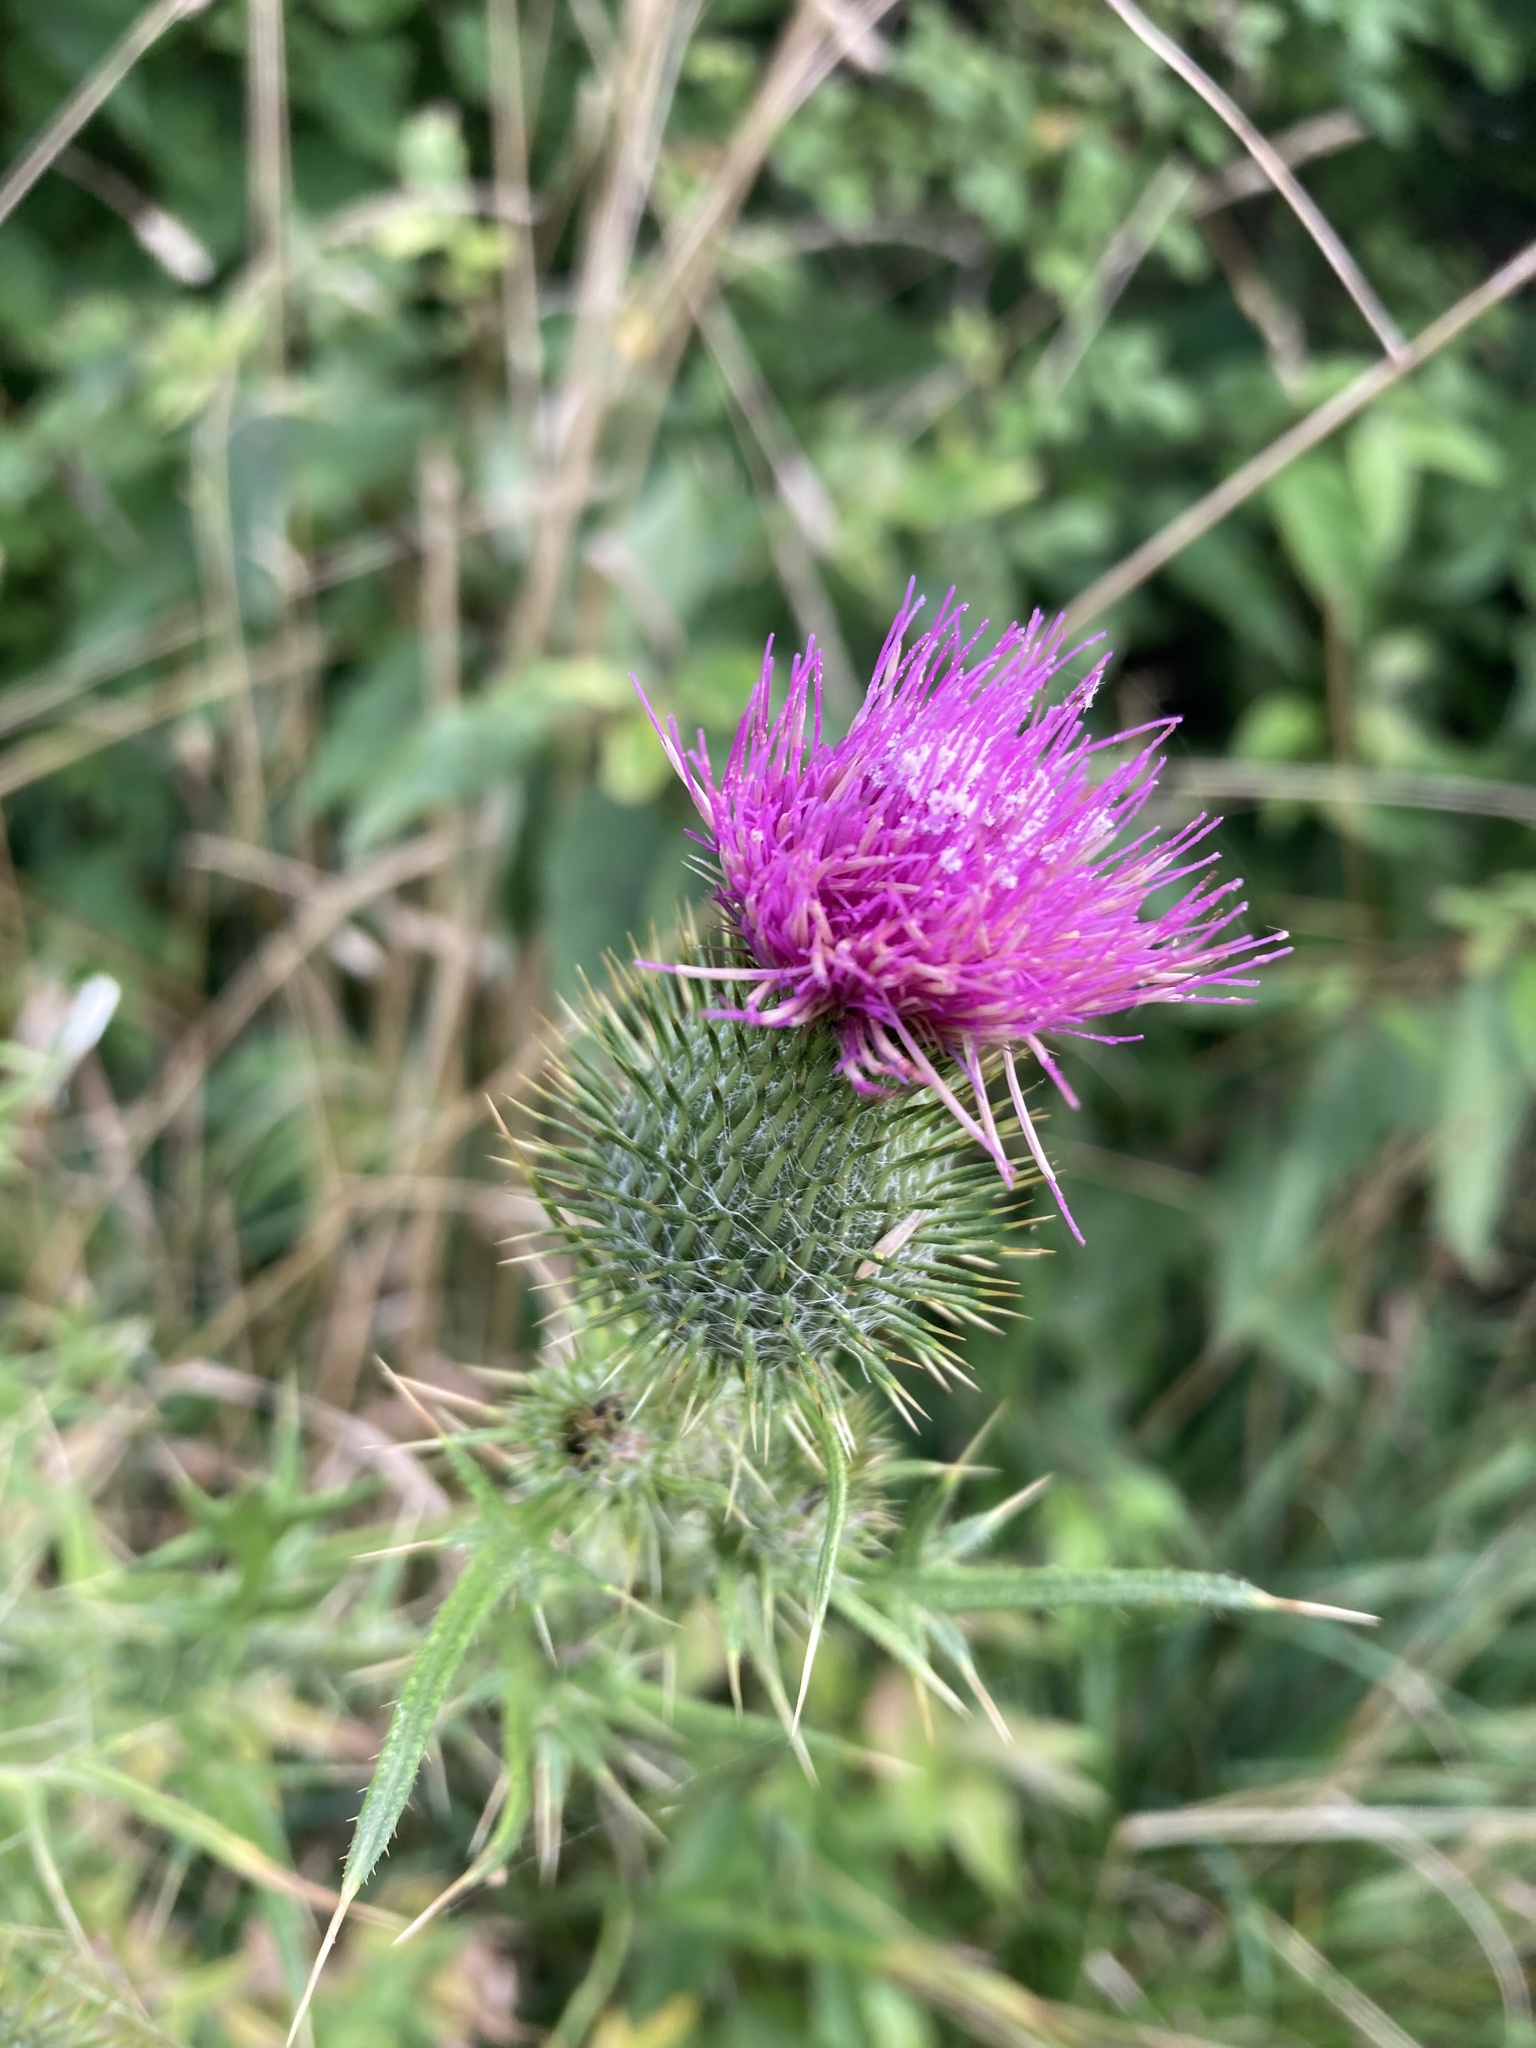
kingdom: Plantae
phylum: Tracheophyta
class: Magnoliopsida
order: Asterales
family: Asteraceae
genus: Cirsium
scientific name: Cirsium vulgare
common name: Bull thistle
